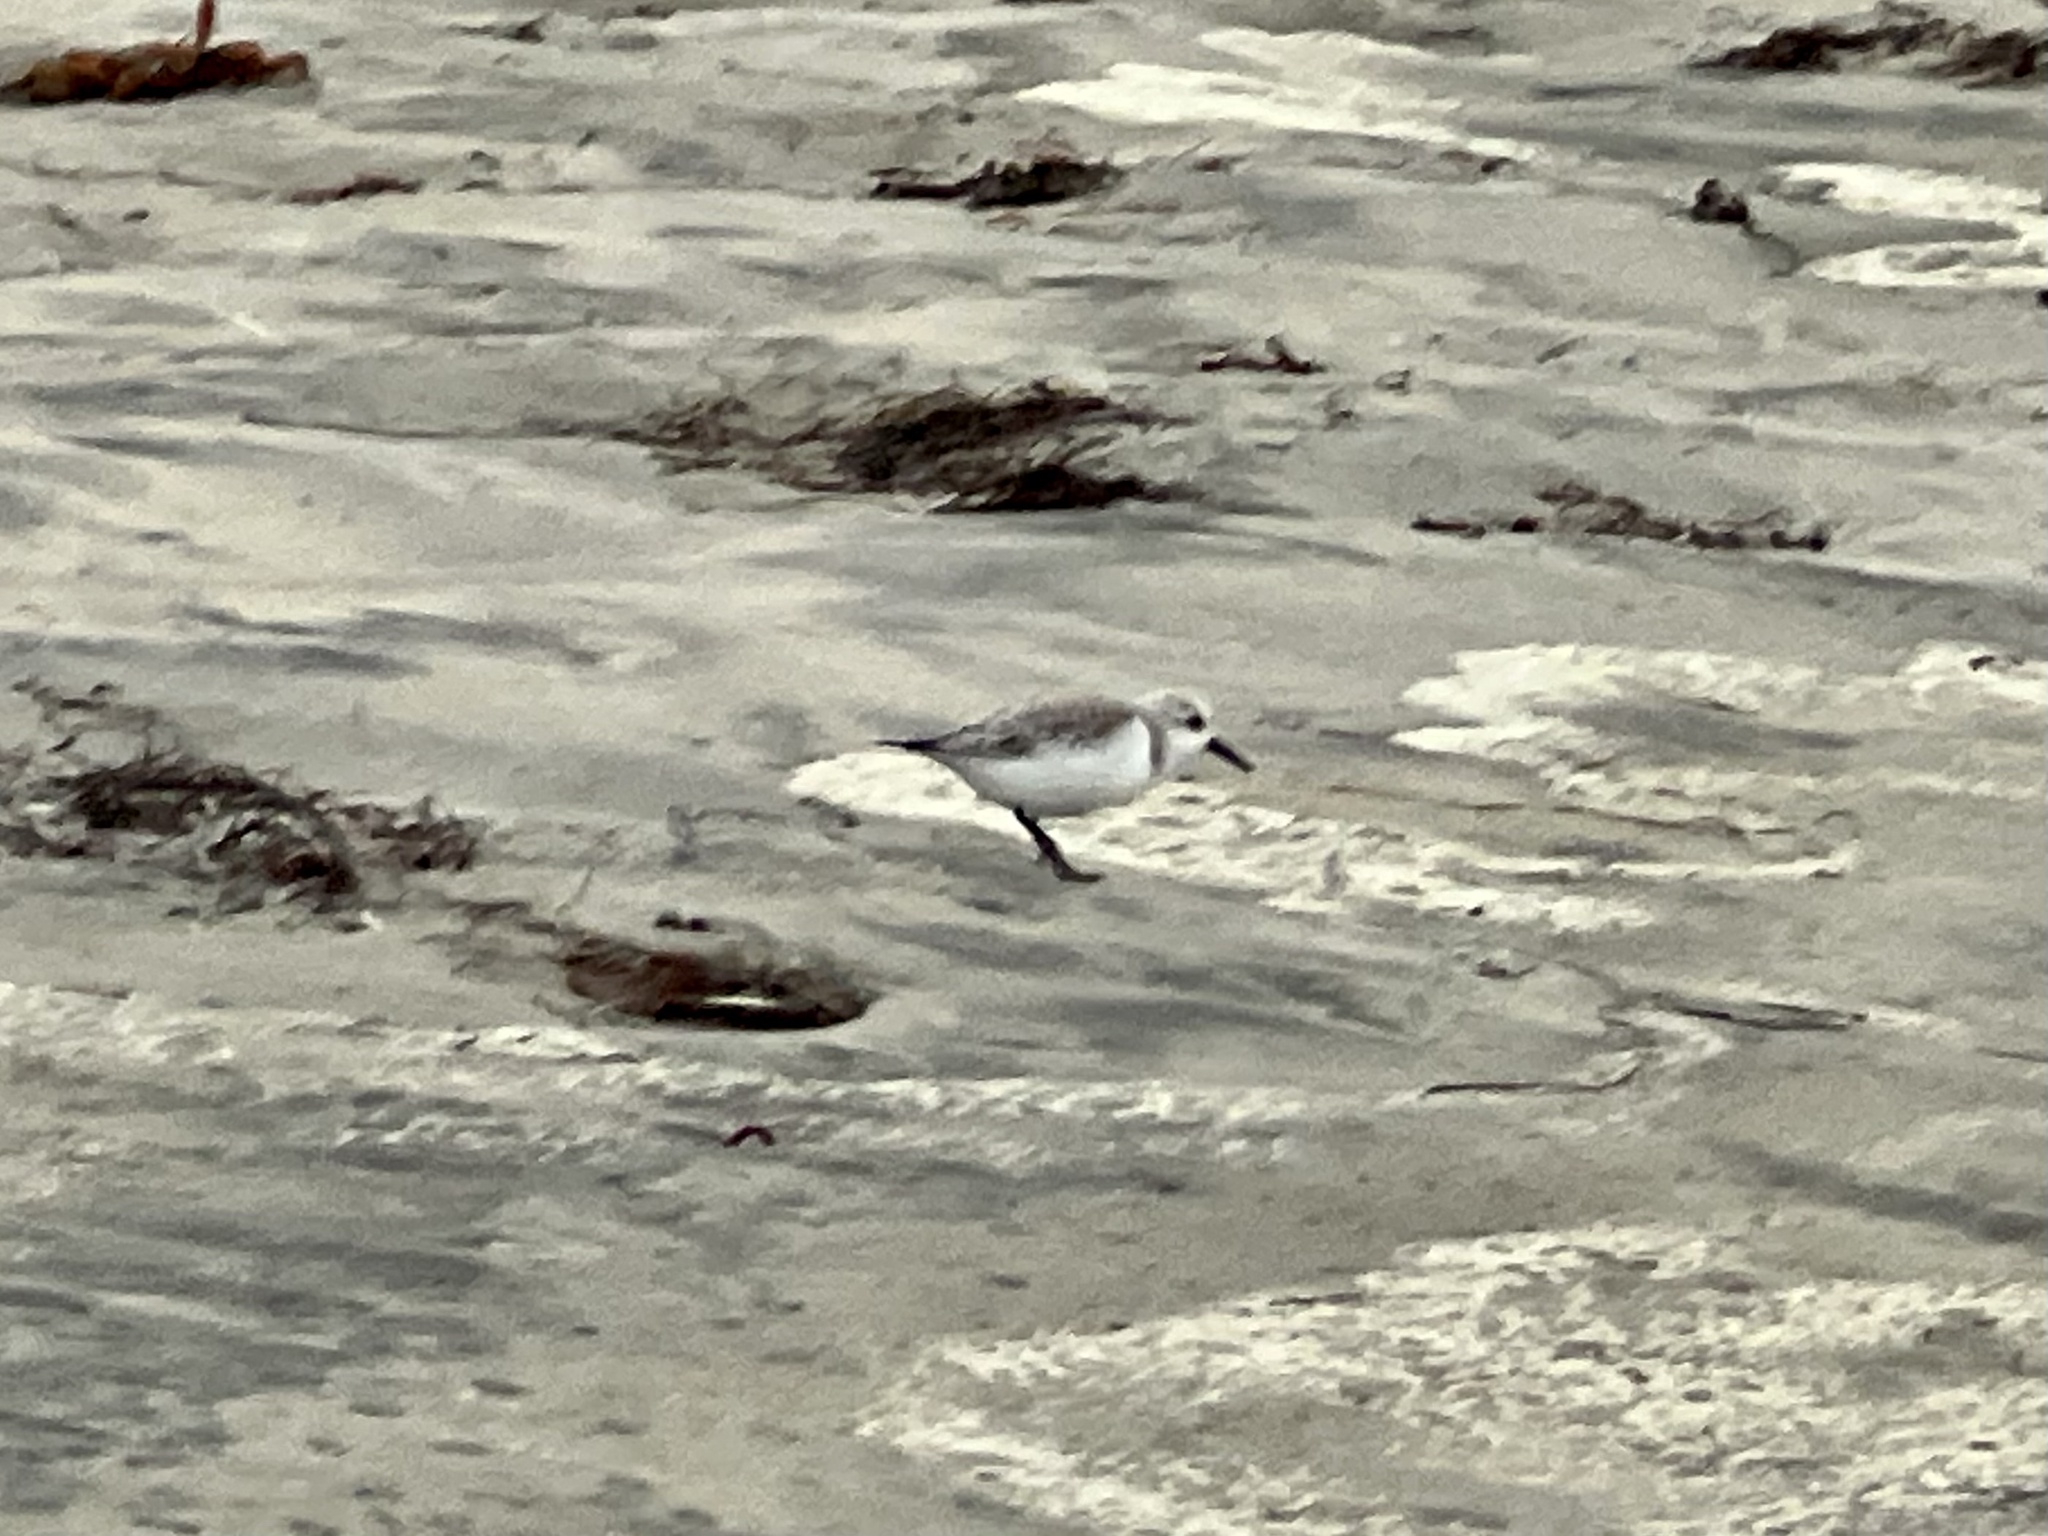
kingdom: Animalia
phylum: Chordata
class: Aves
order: Charadriiformes
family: Scolopacidae
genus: Calidris
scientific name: Calidris alba
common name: Sanderling
